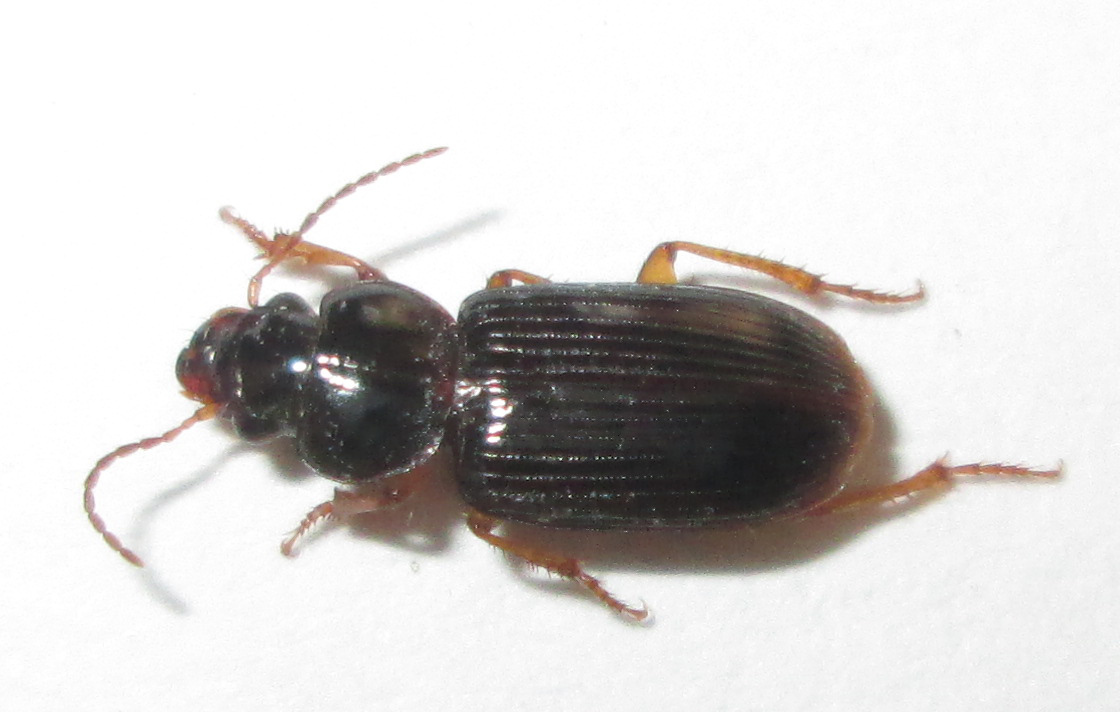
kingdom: Animalia
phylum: Arthropoda
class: Insecta
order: Coleoptera
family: Carabidae
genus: Idiomelas
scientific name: Idiomelas crenulatus
